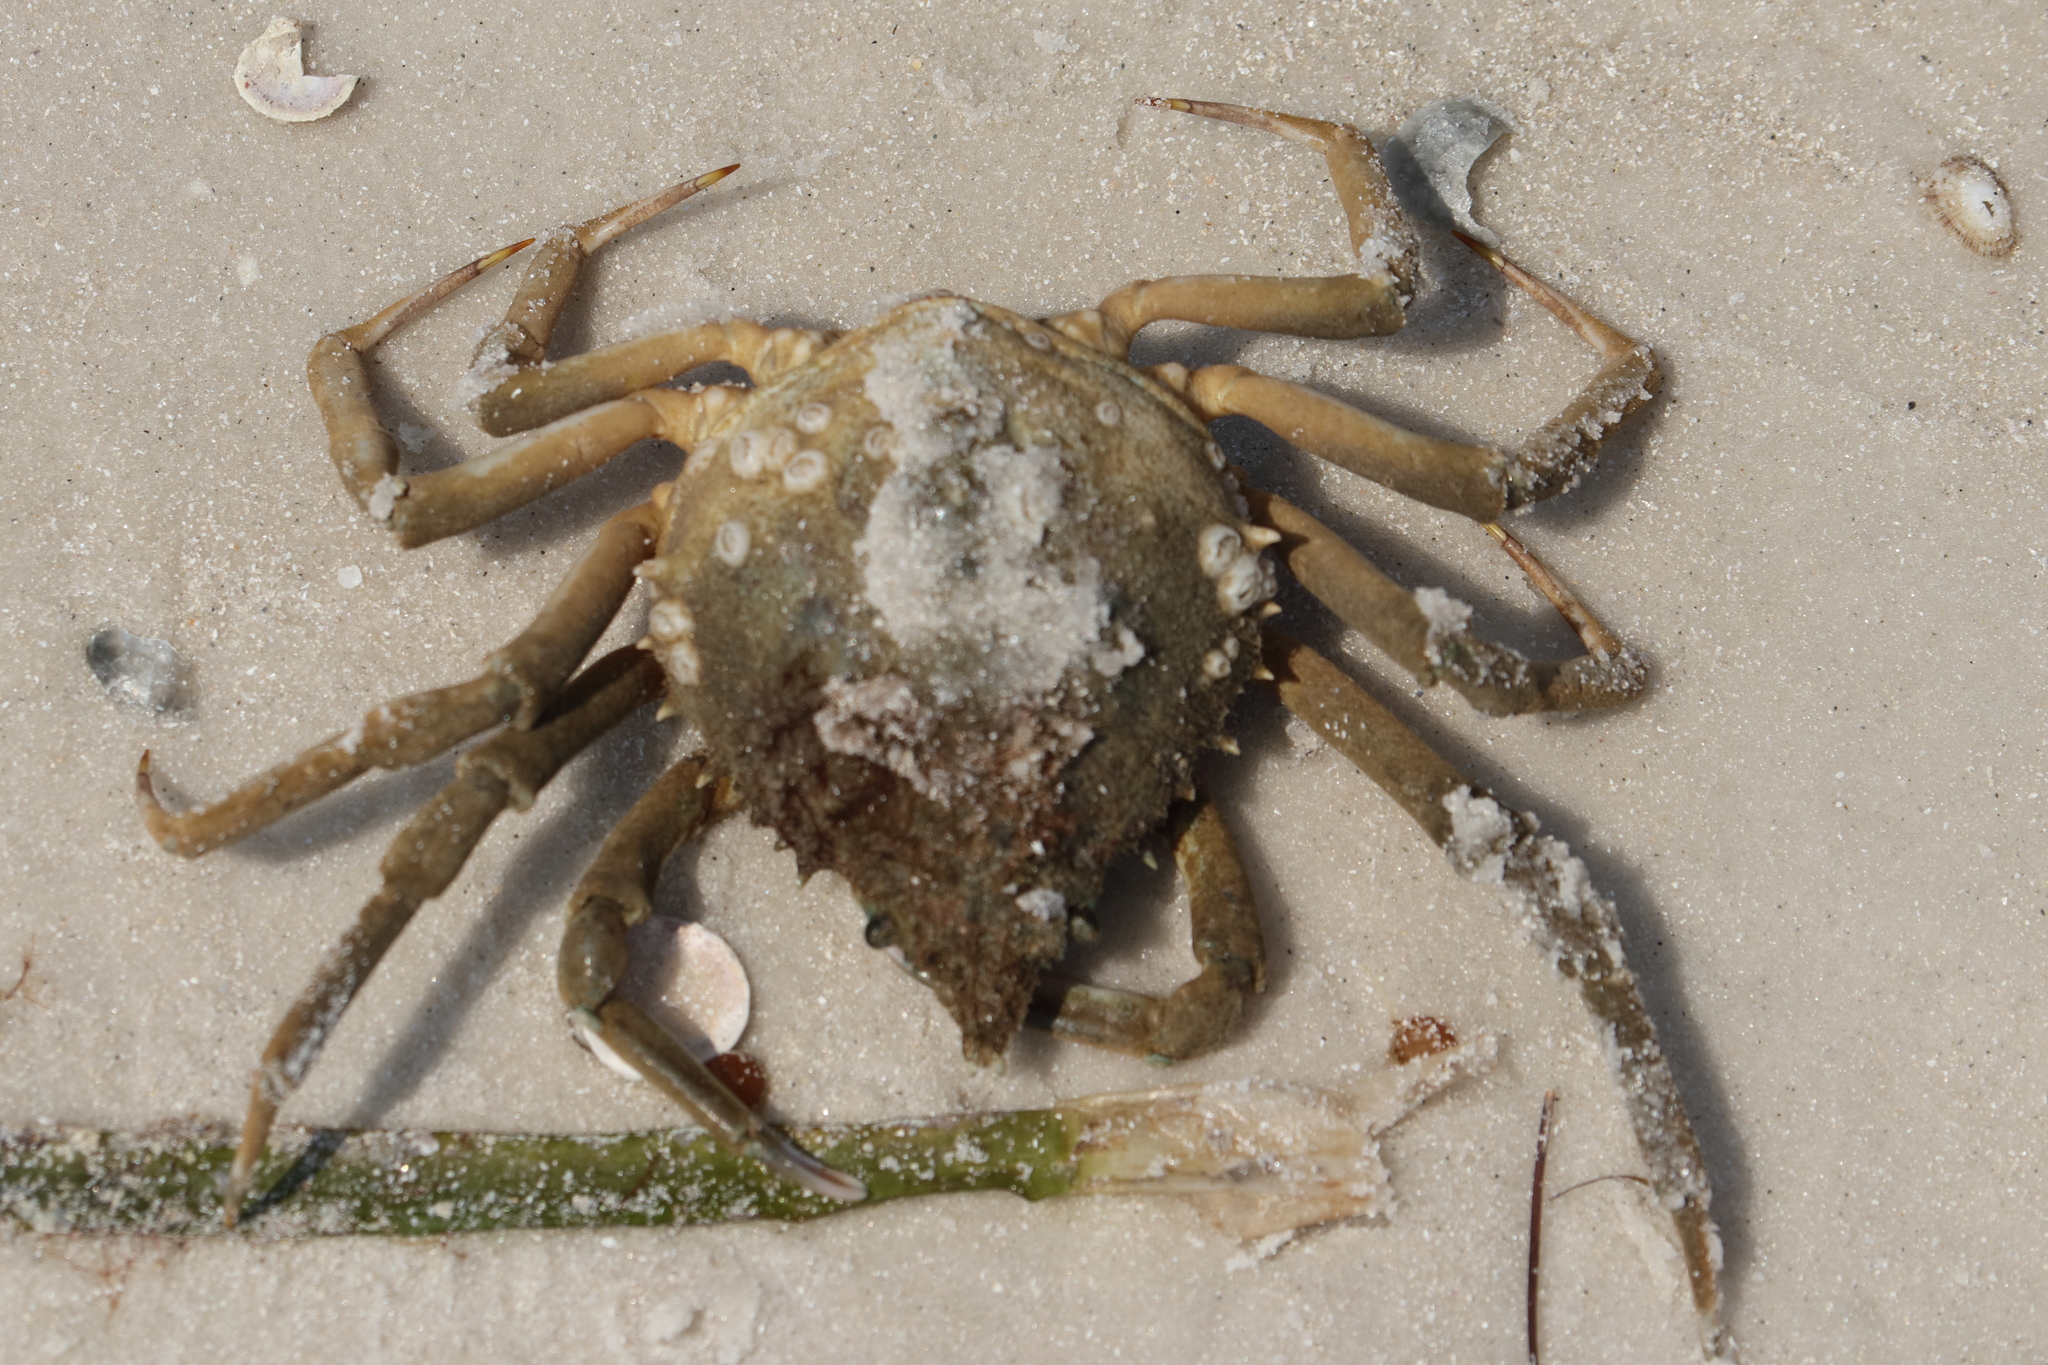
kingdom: Animalia
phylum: Arthropoda
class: Malacostraca
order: Decapoda
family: Epialtidae
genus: Libinia
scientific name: Libinia emarginata
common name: Common spider crab
